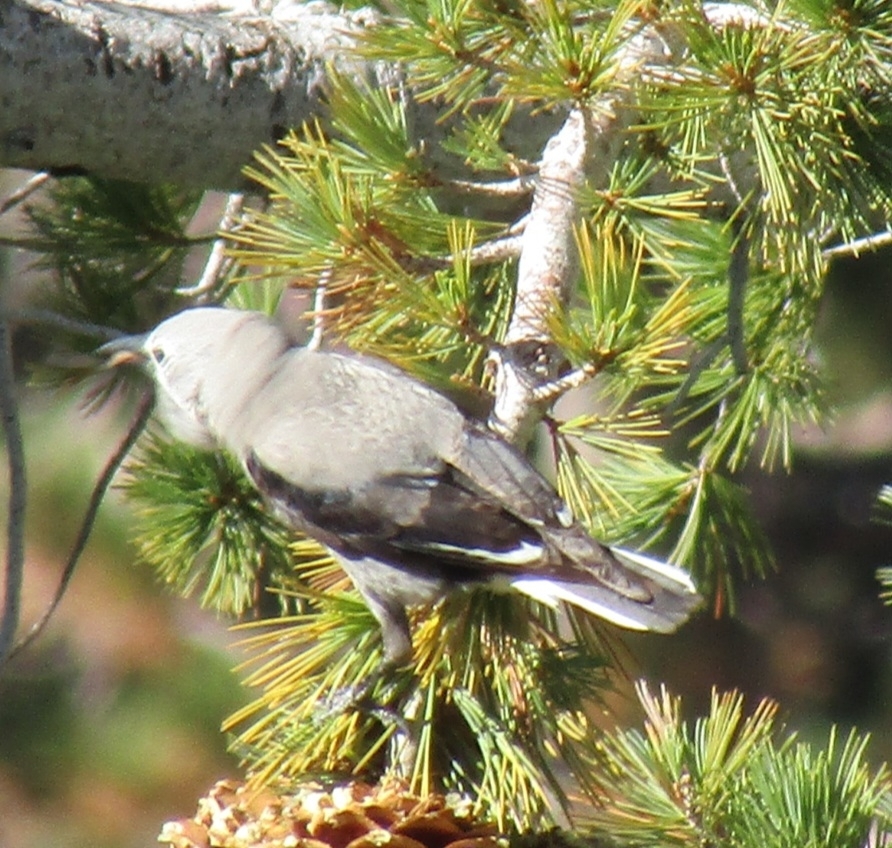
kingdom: Animalia
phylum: Chordata
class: Aves
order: Passeriformes
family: Corvidae
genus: Nucifraga
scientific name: Nucifraga columbiana
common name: Clark's nutcracker
